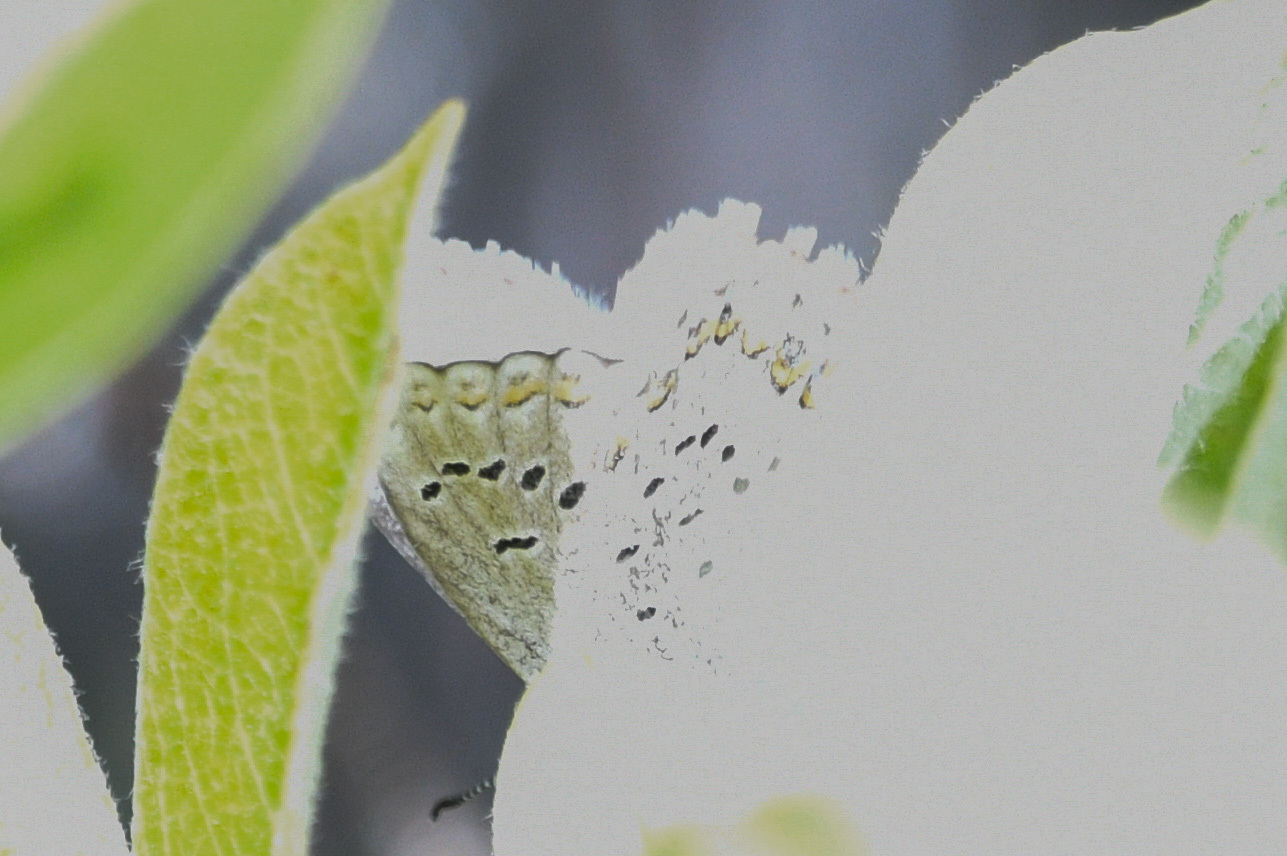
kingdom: Animalia
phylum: Arthropoda
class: Insecta
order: Lepidoptera
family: Lycaenidae
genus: Lycaeides
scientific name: Lycaeides idas
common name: Northern blue
